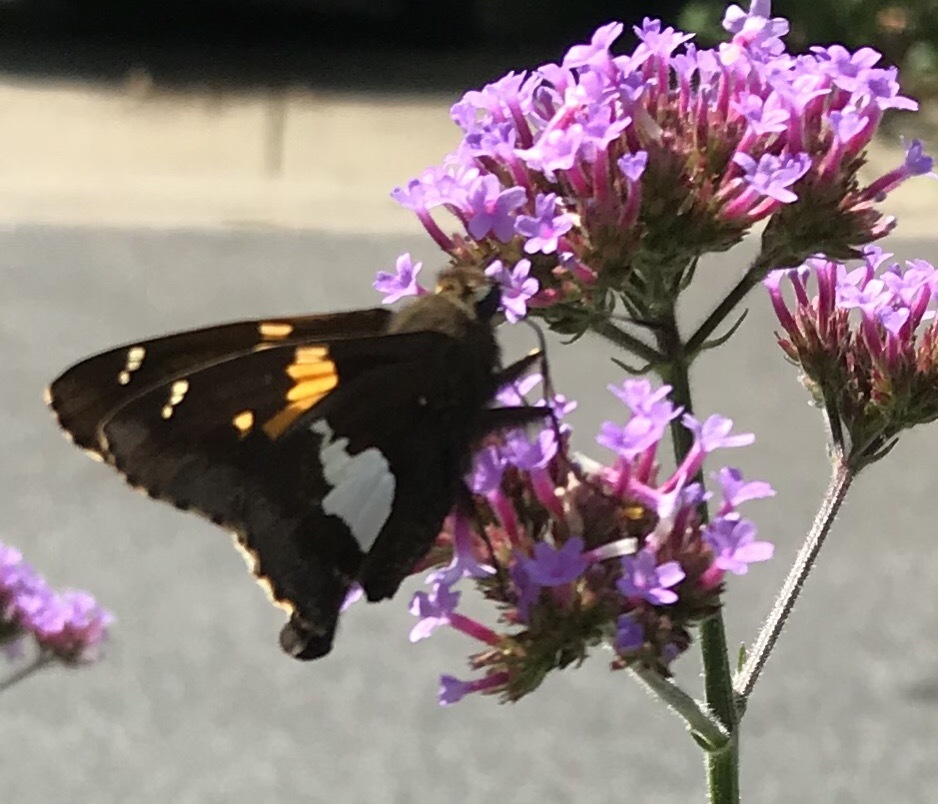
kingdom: Animalia
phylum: Arthropoda
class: Insecta
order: Lepidoptera
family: Hesperiidae
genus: Epargyreus
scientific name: Epargyreus clarus
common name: Silver-spotted skipper
